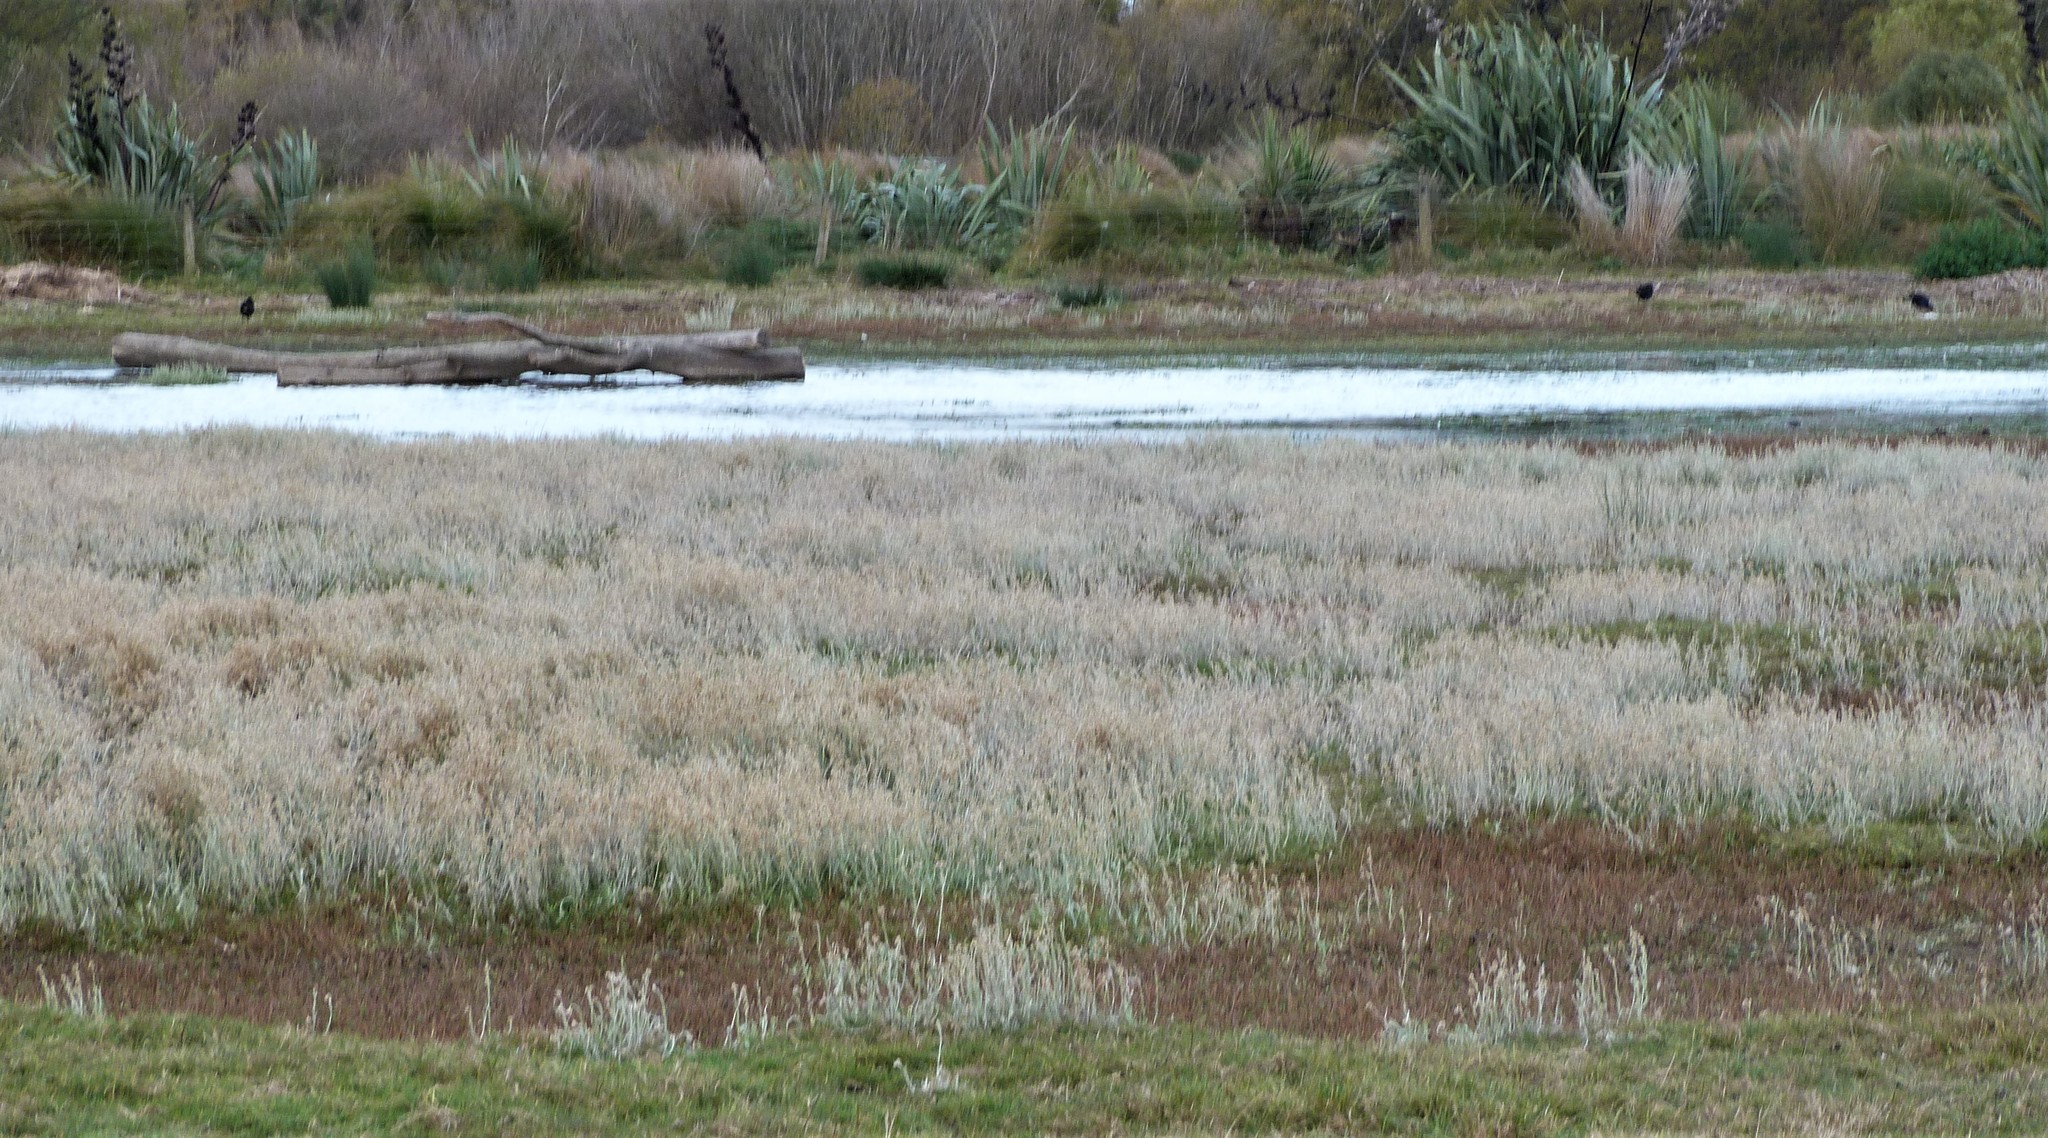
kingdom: Plantae
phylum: Tracheophyta
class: Magnoliopsida
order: Asterales
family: Asteraceae
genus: Helichrysum
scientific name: Helichrysum luteoalbum
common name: Daisy
